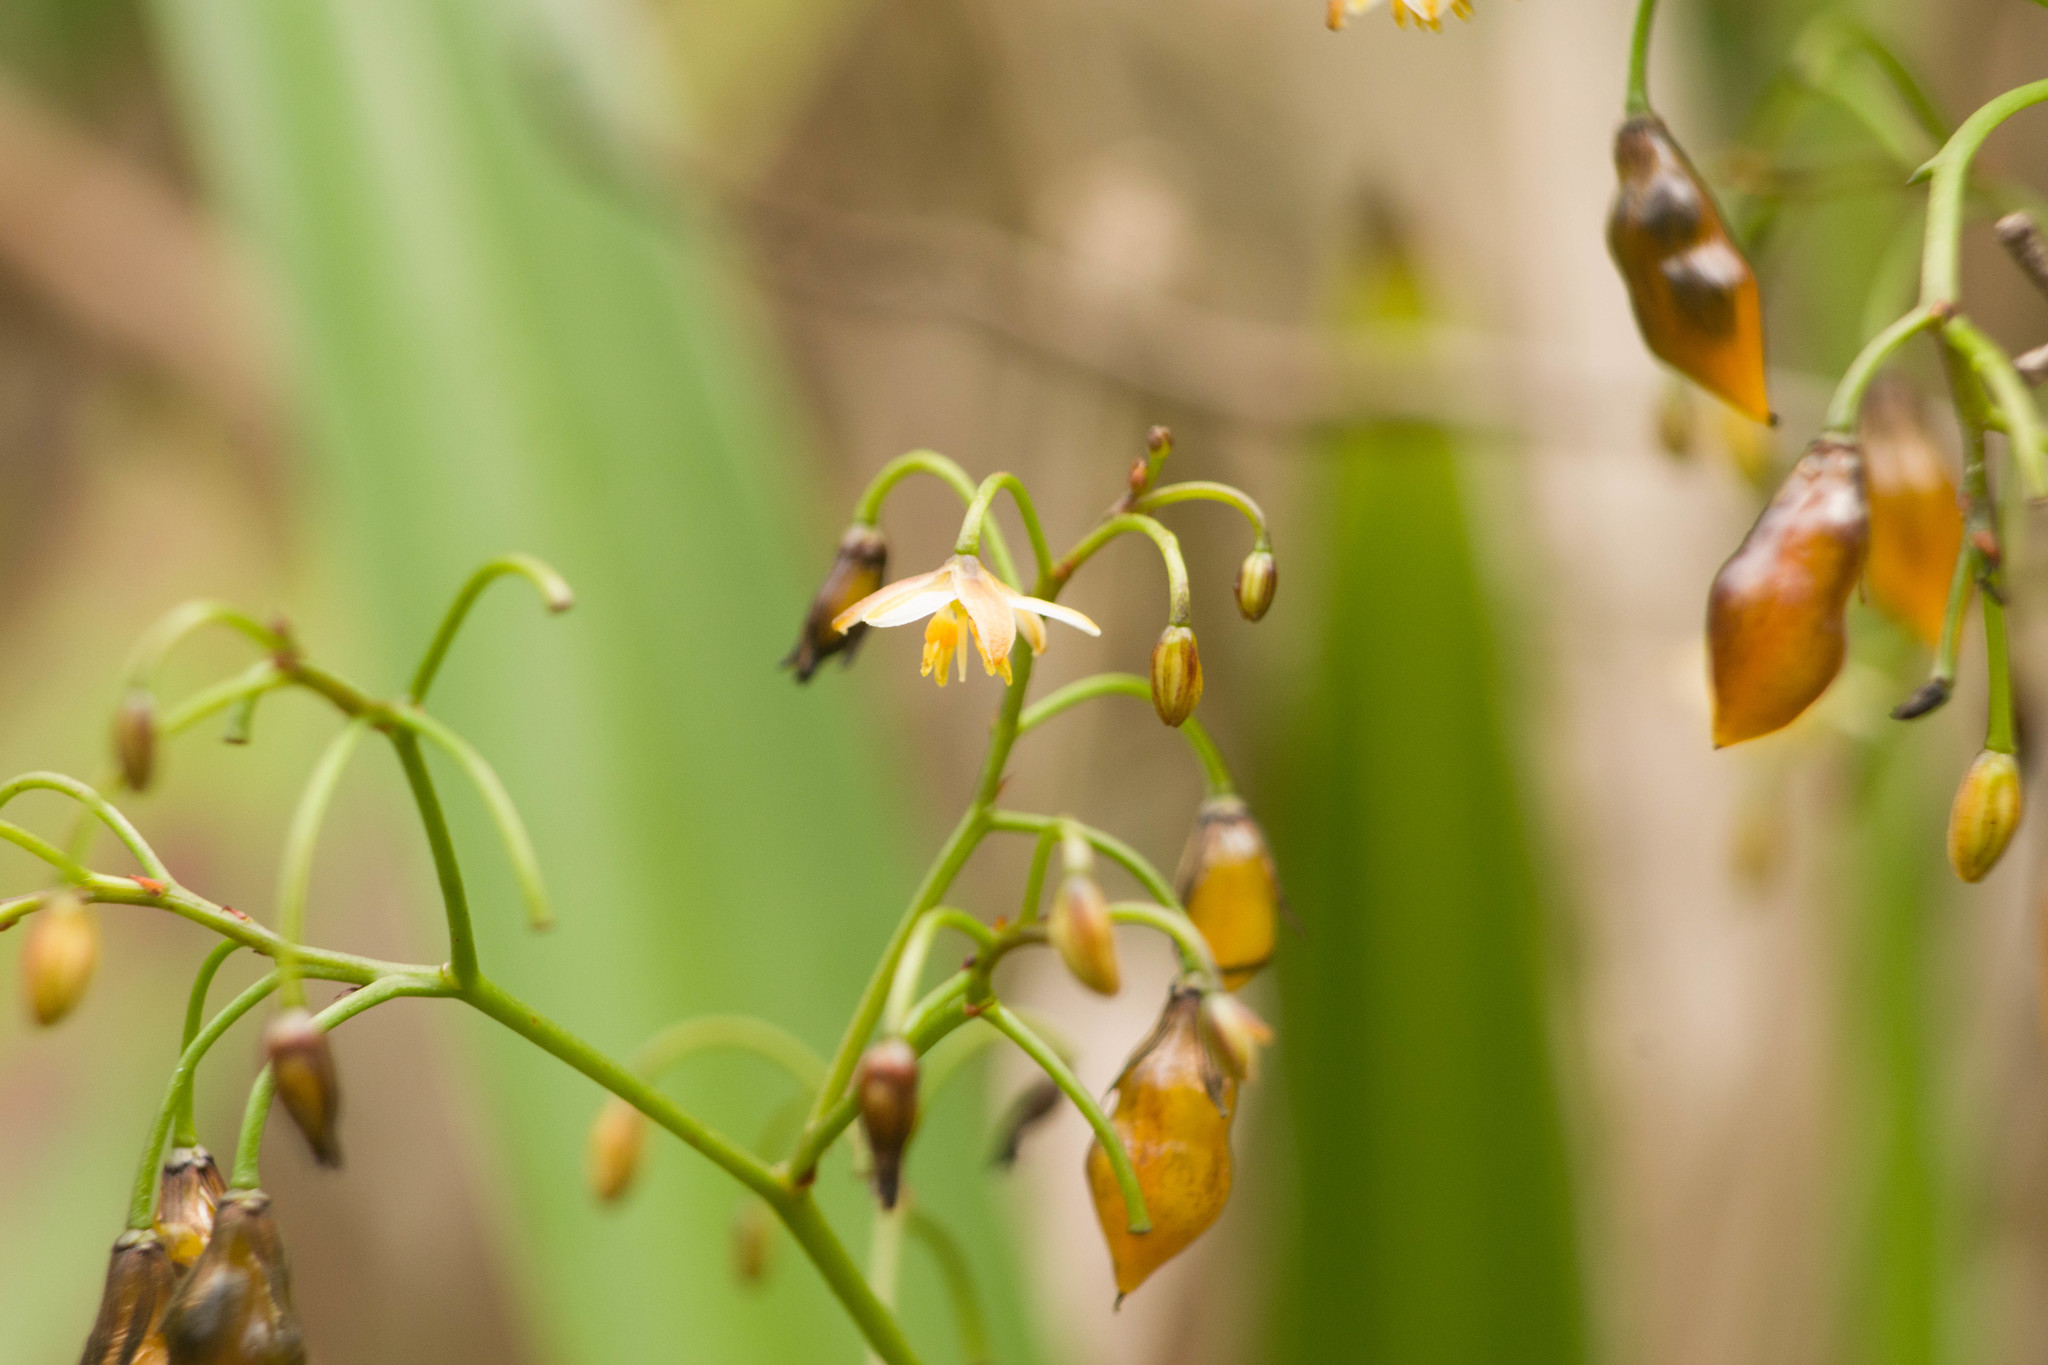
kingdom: Plantae
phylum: Tracheophyta
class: Liliopsida
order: Asparagales
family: Asphodelaceae
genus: Dianella
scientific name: Dianella sandwicensis
